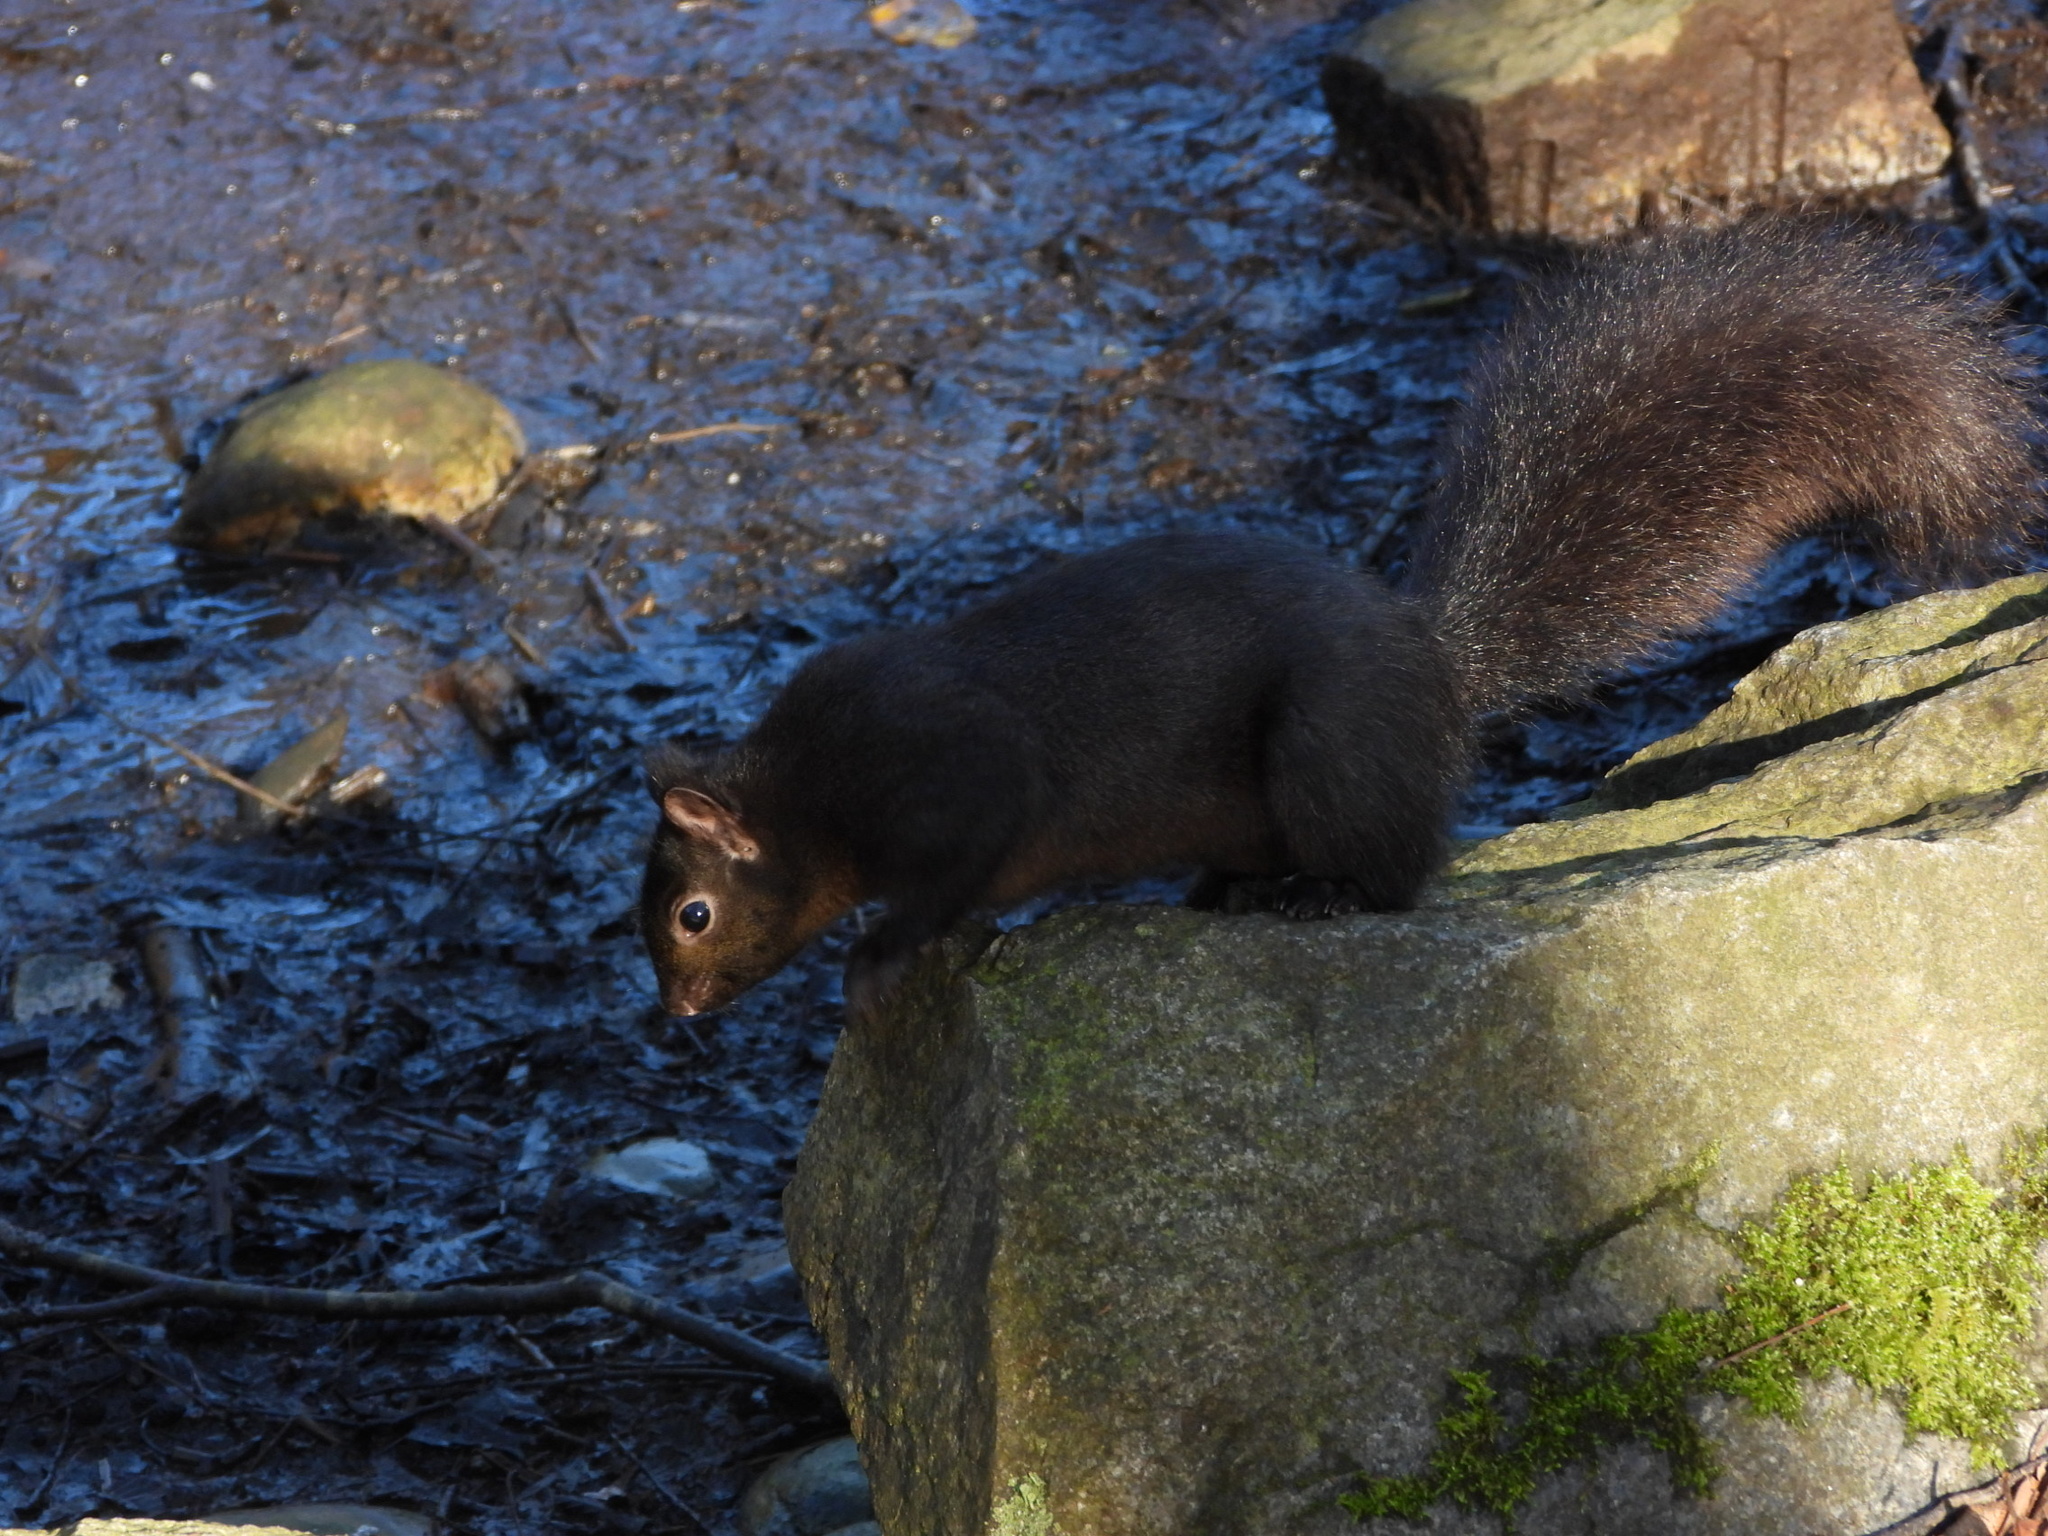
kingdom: Animalia
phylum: Chordata
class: Mammalia
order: Rodentia
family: Sciuridae
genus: Sciurus
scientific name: Sciurus carolinensis
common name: Eastern gray squirrel
